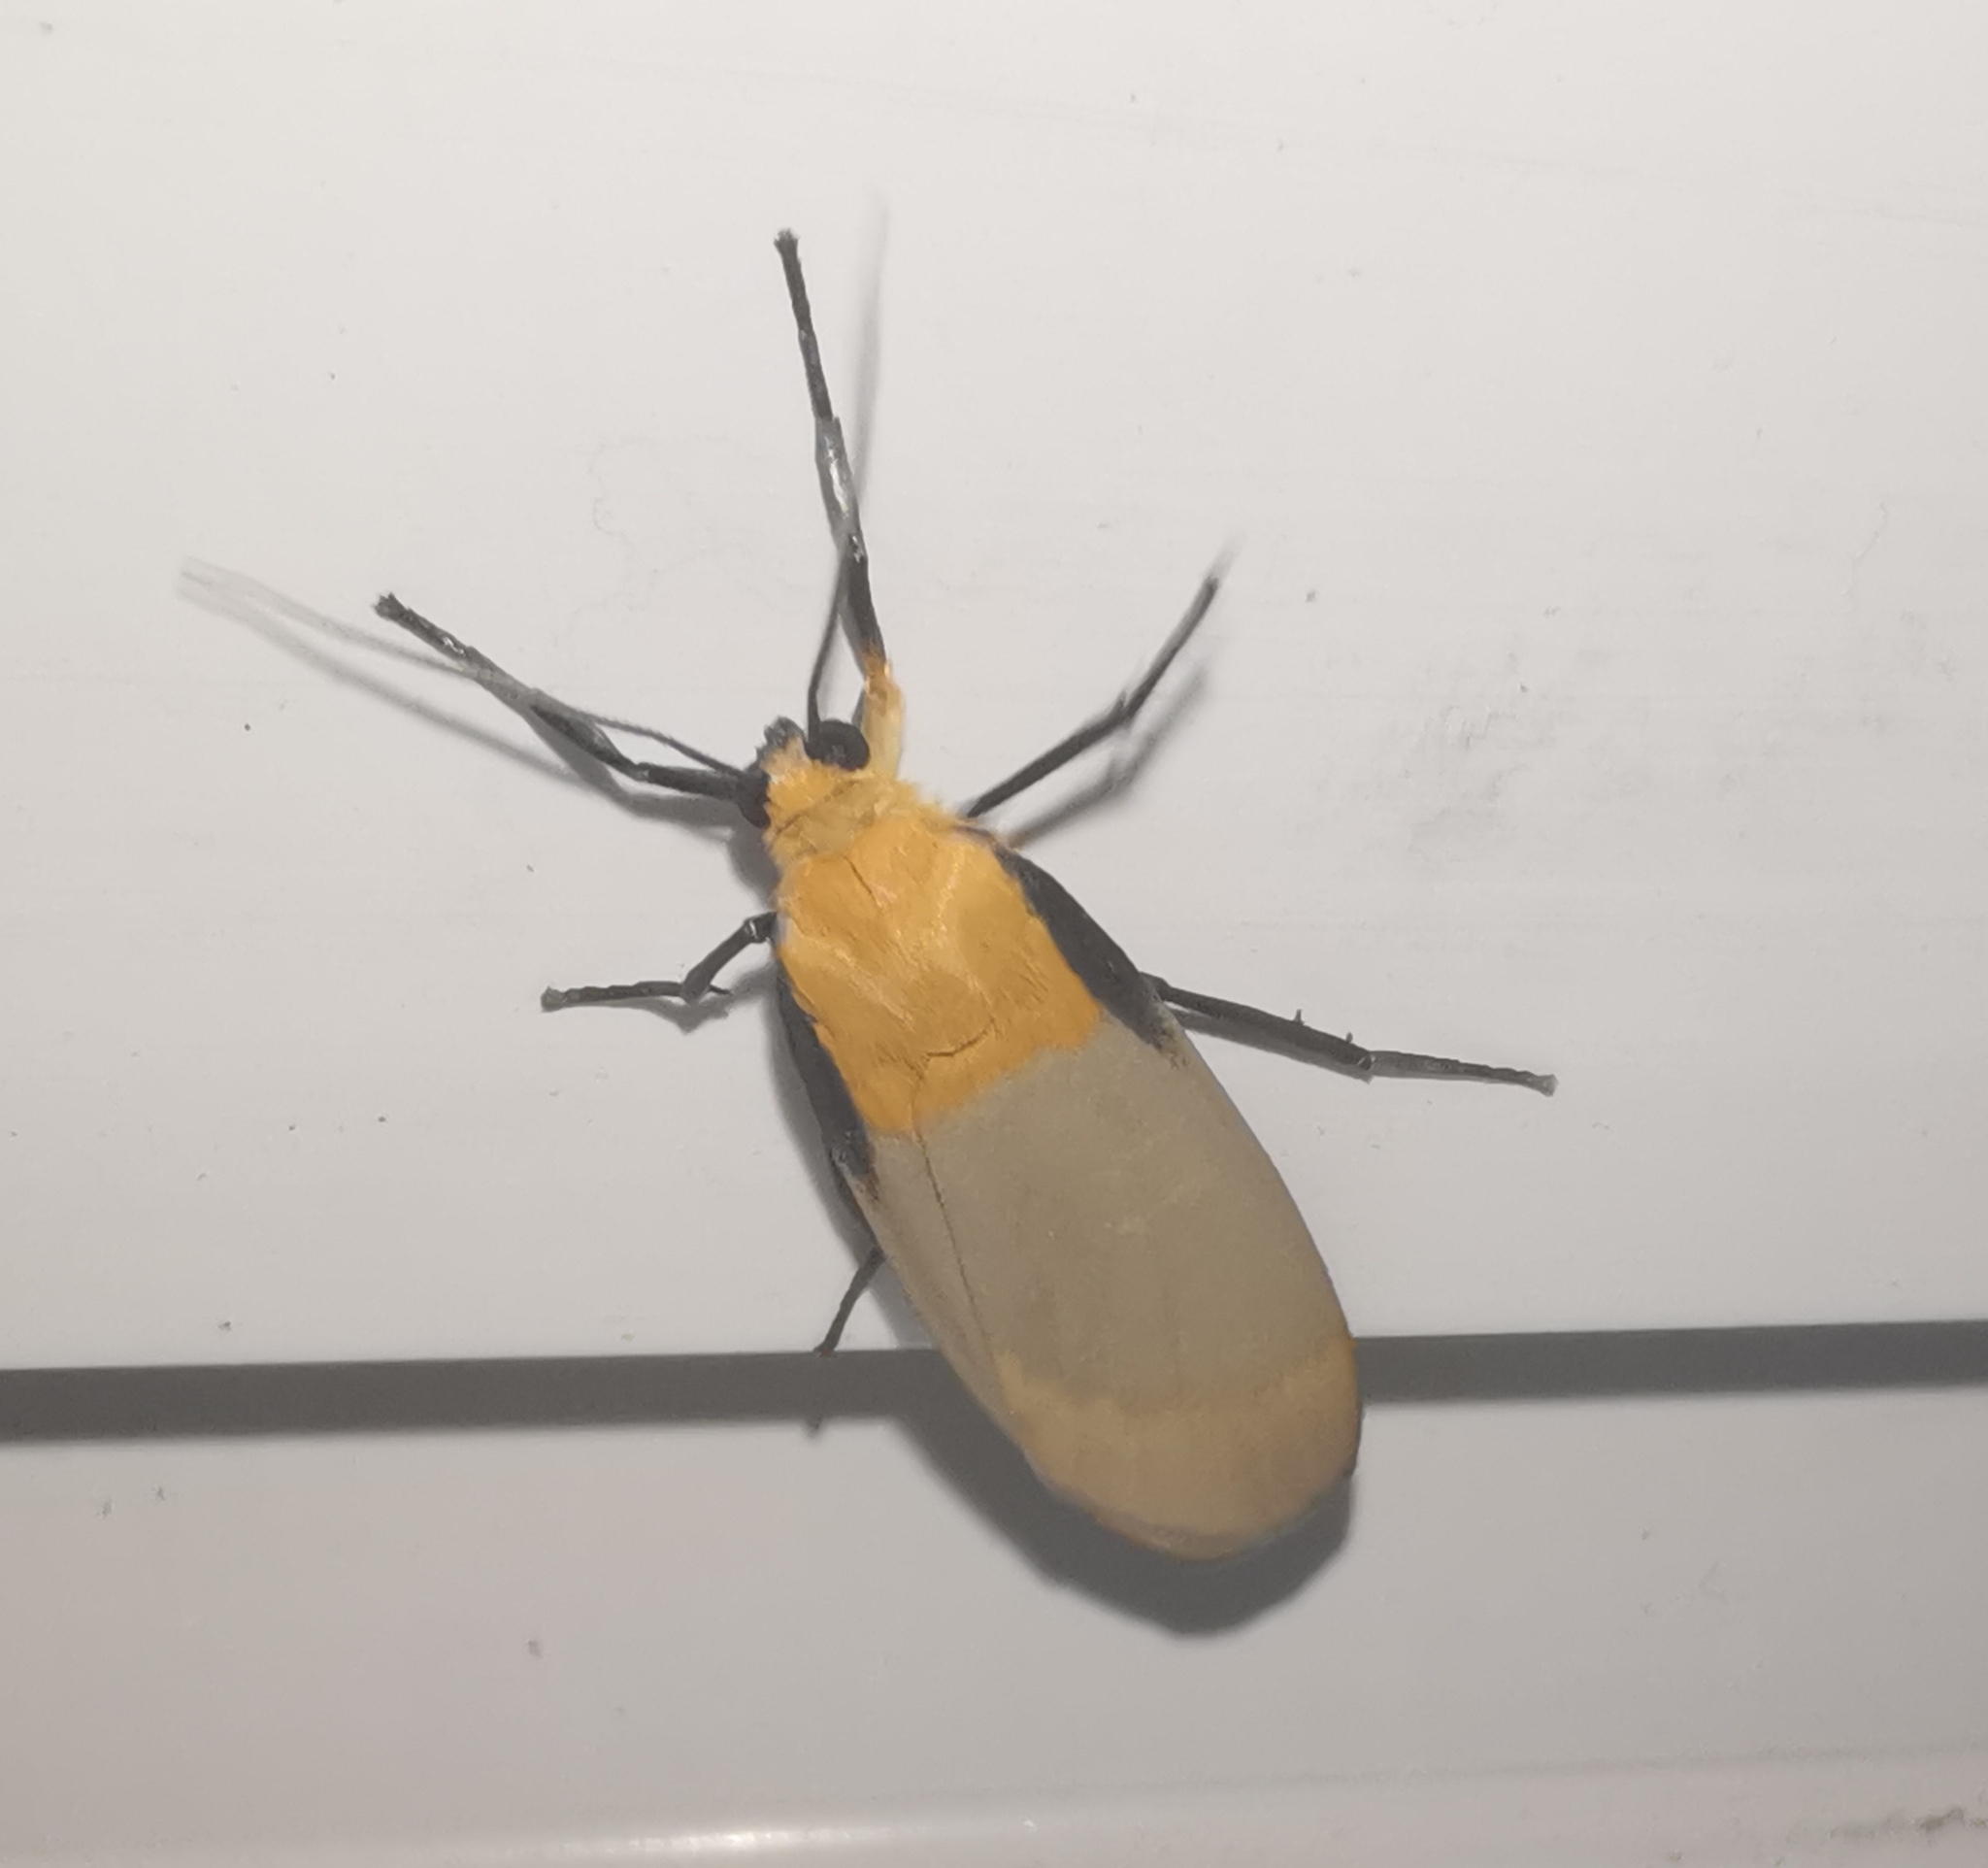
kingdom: Animalia
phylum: Arthropoda
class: Insecta
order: Lepidoptera
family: Erebidae
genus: Lithosia
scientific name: Lithosia quadra
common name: Four-spotted footman
